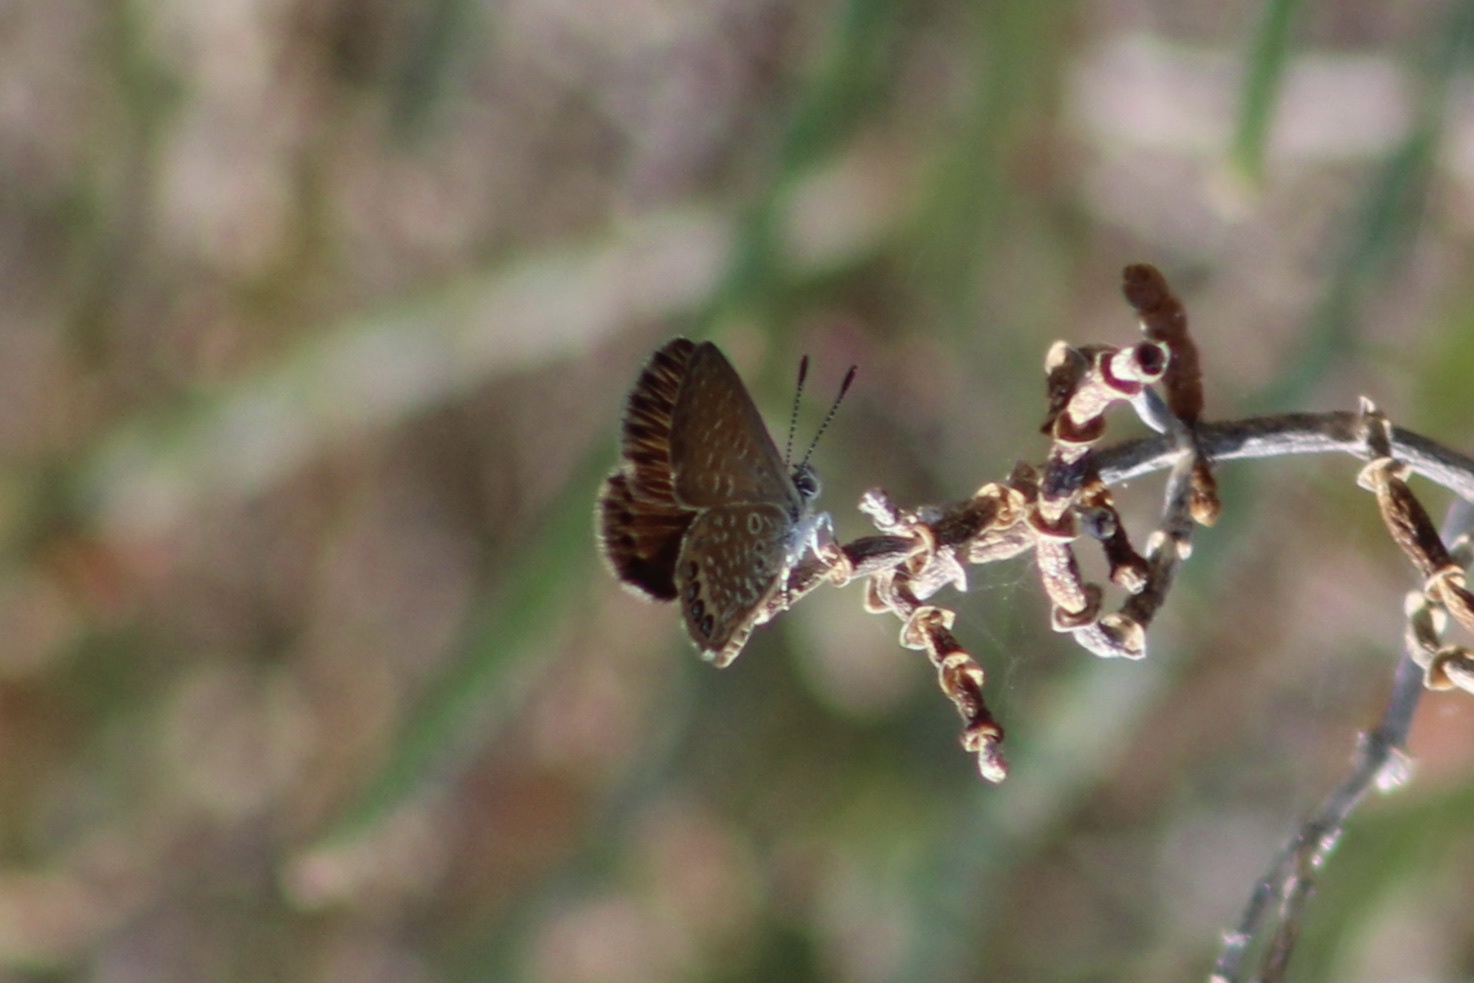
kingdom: Animalia
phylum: Arthropoda
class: Insecta
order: Lepidoptera
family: Lycaenidae
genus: Brephidium
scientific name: Brephidium isophthalma
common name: Eastern pygmy-blue
